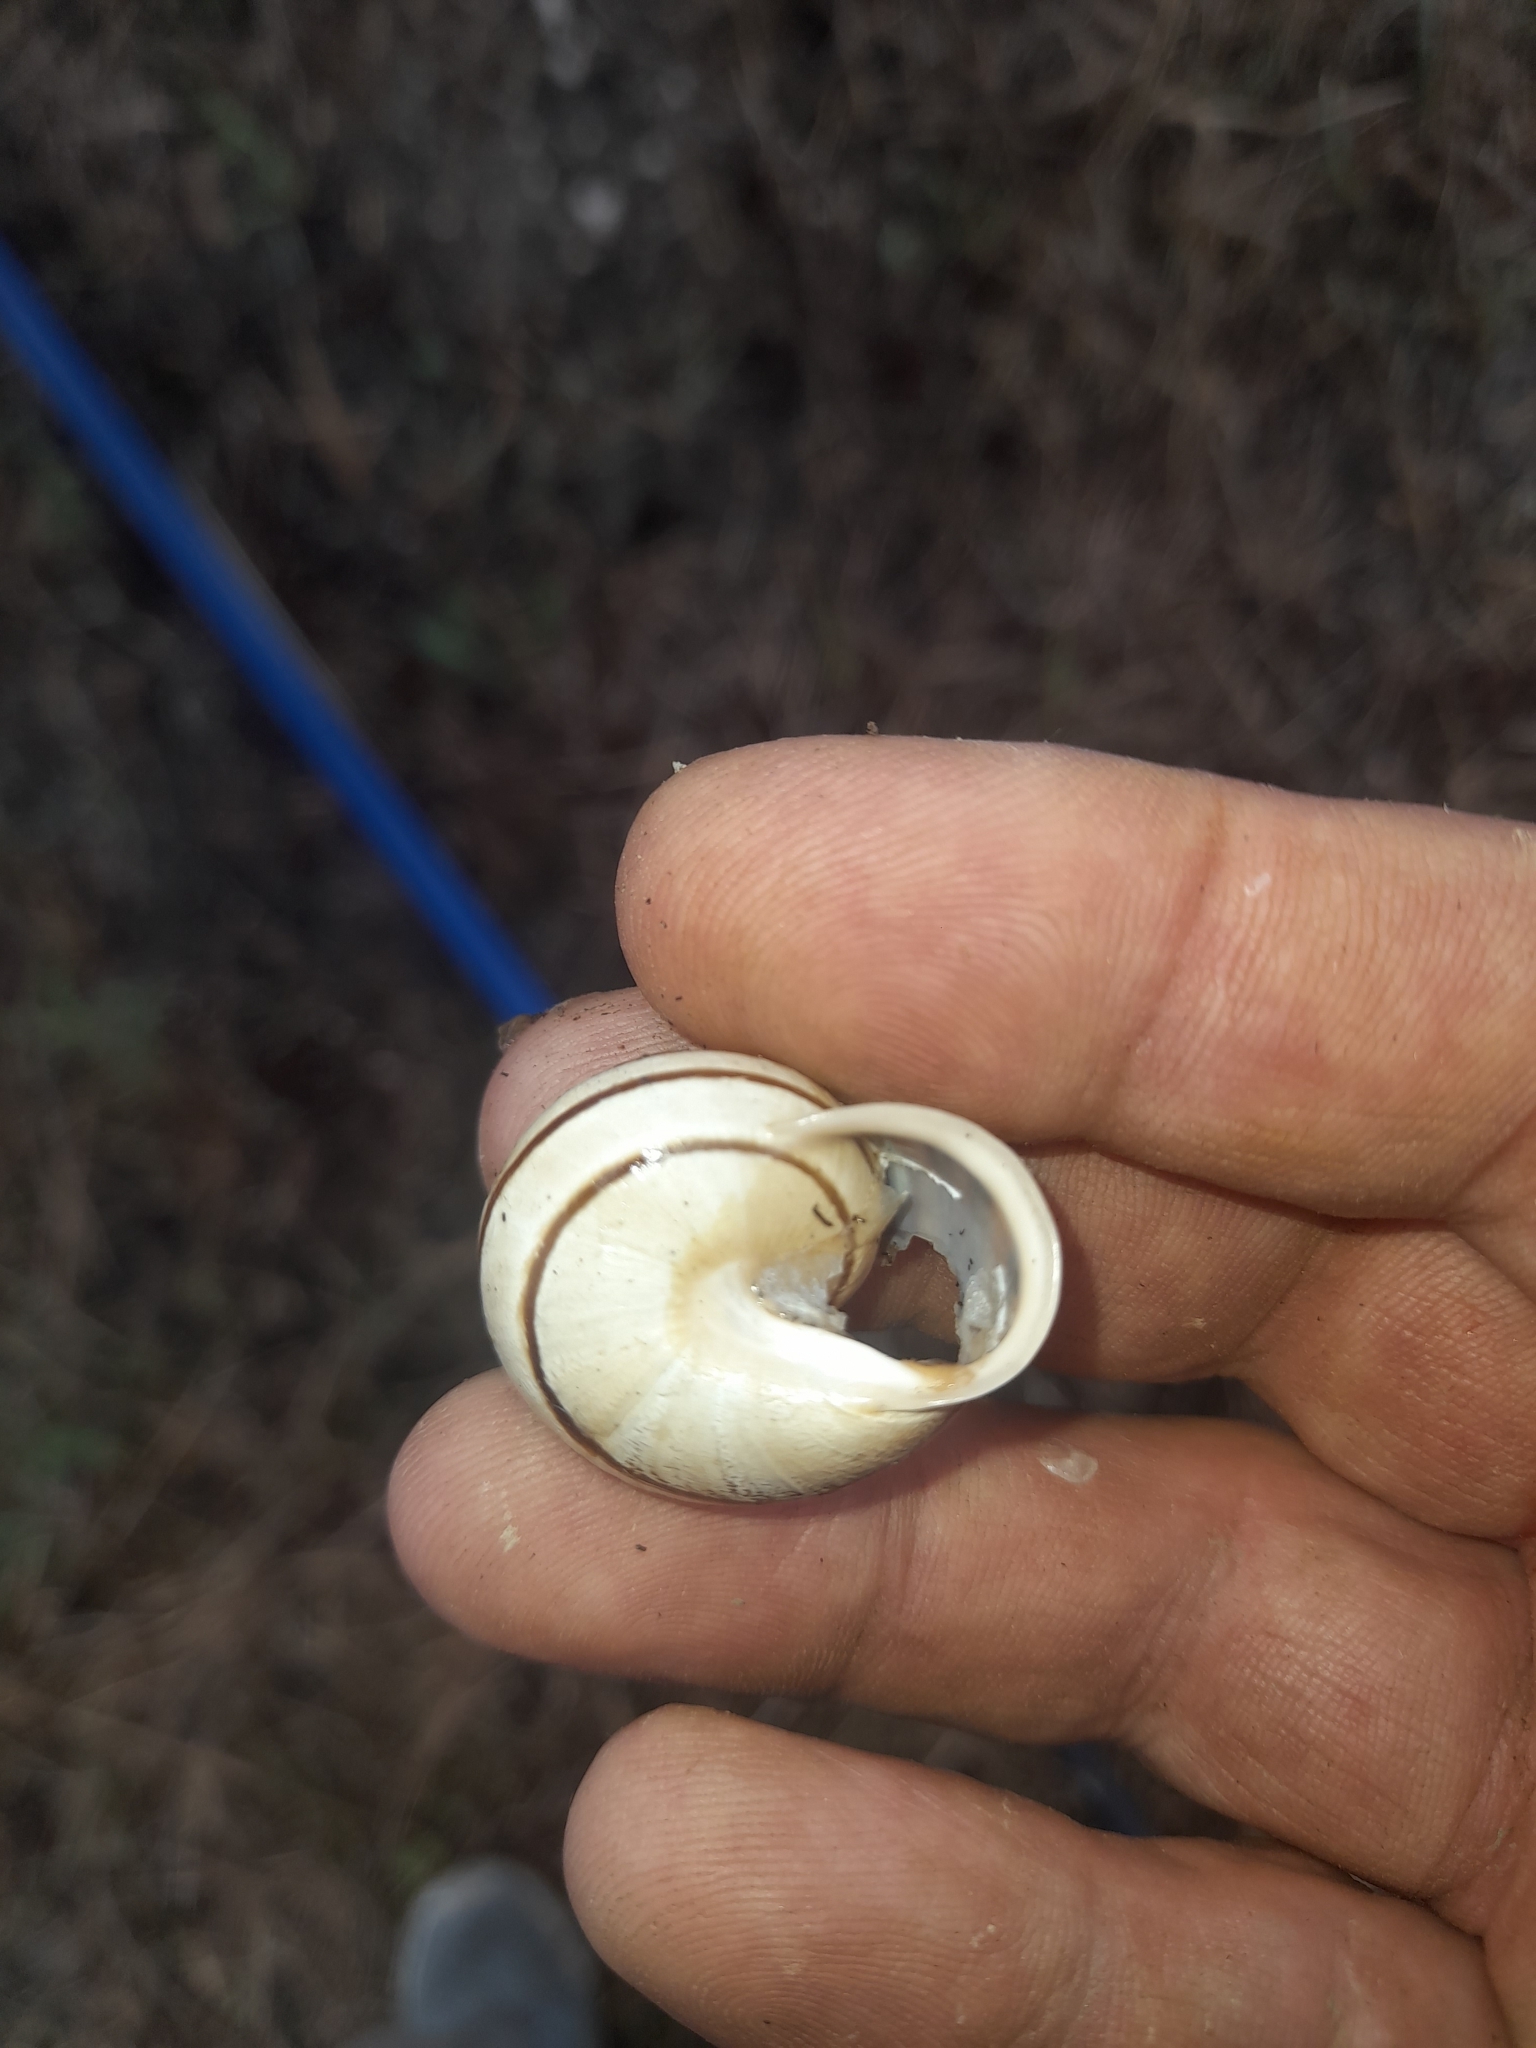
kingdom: Animalia
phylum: Mollusca
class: Gastropoda
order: Stylommatophora
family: Helicidae
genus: Eobania
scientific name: Eobania vermiculata
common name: Chocolateband snail
